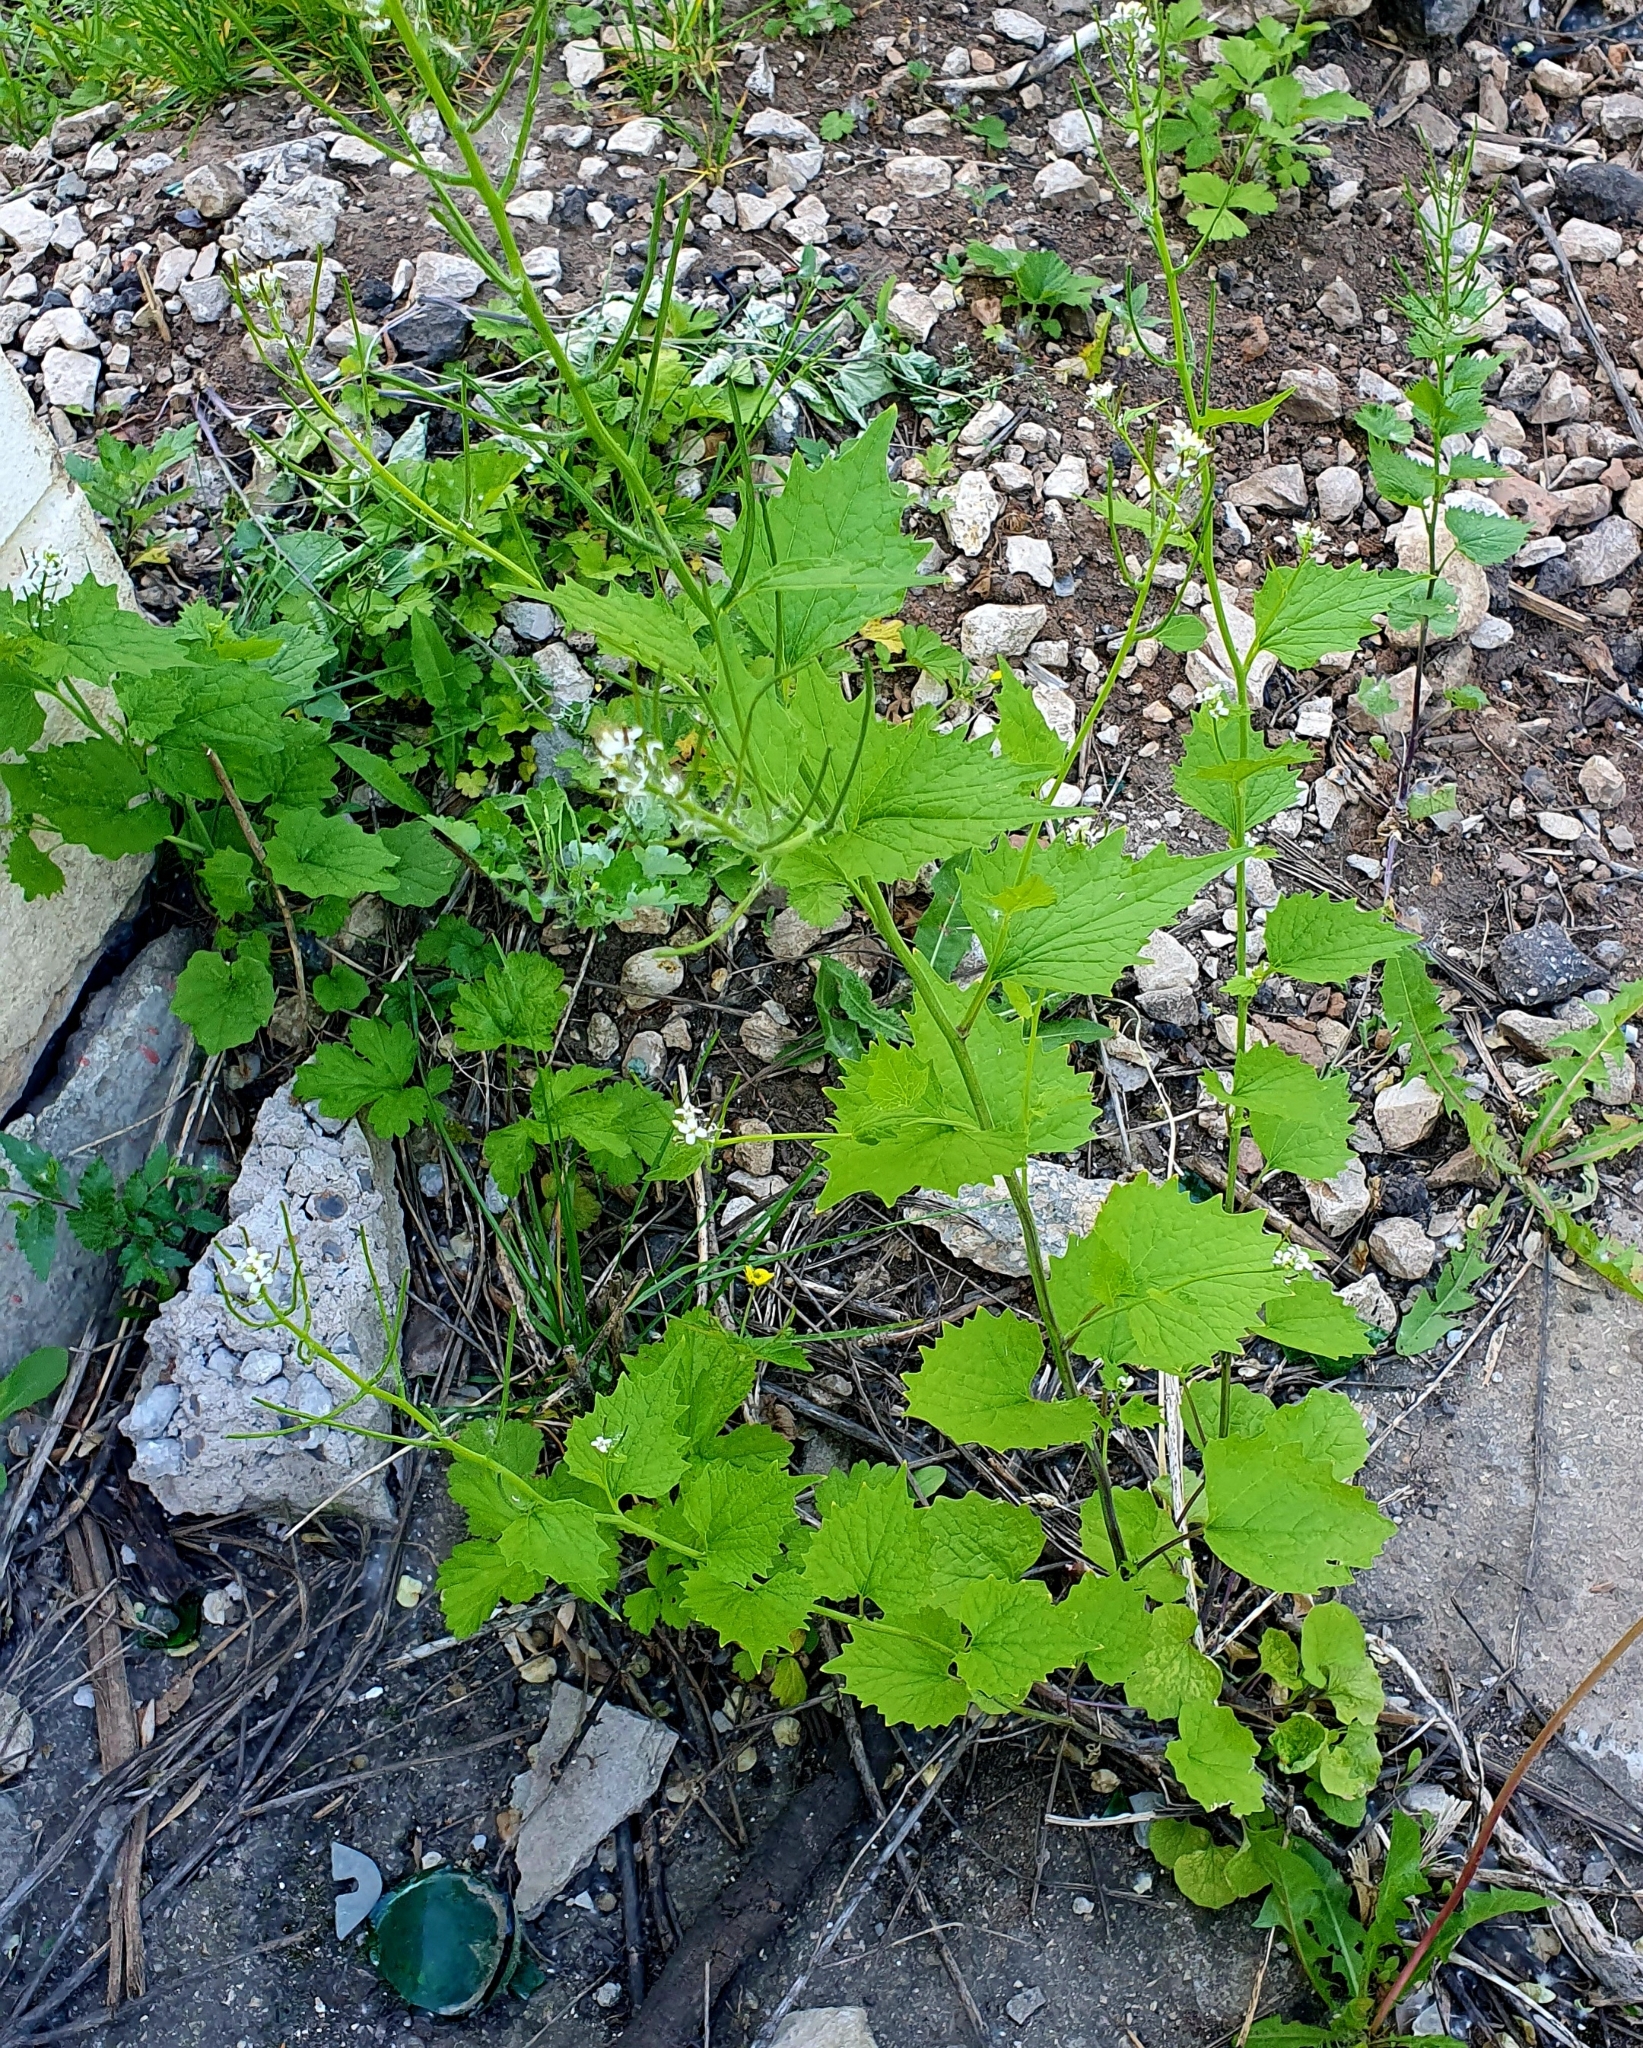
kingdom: Plantae
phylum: Tracheophyta
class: Magnoliopsida
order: Brassicales
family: Brassicaceae
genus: Alliaria
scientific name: Alliaria petiolata
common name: Garlic mustard
